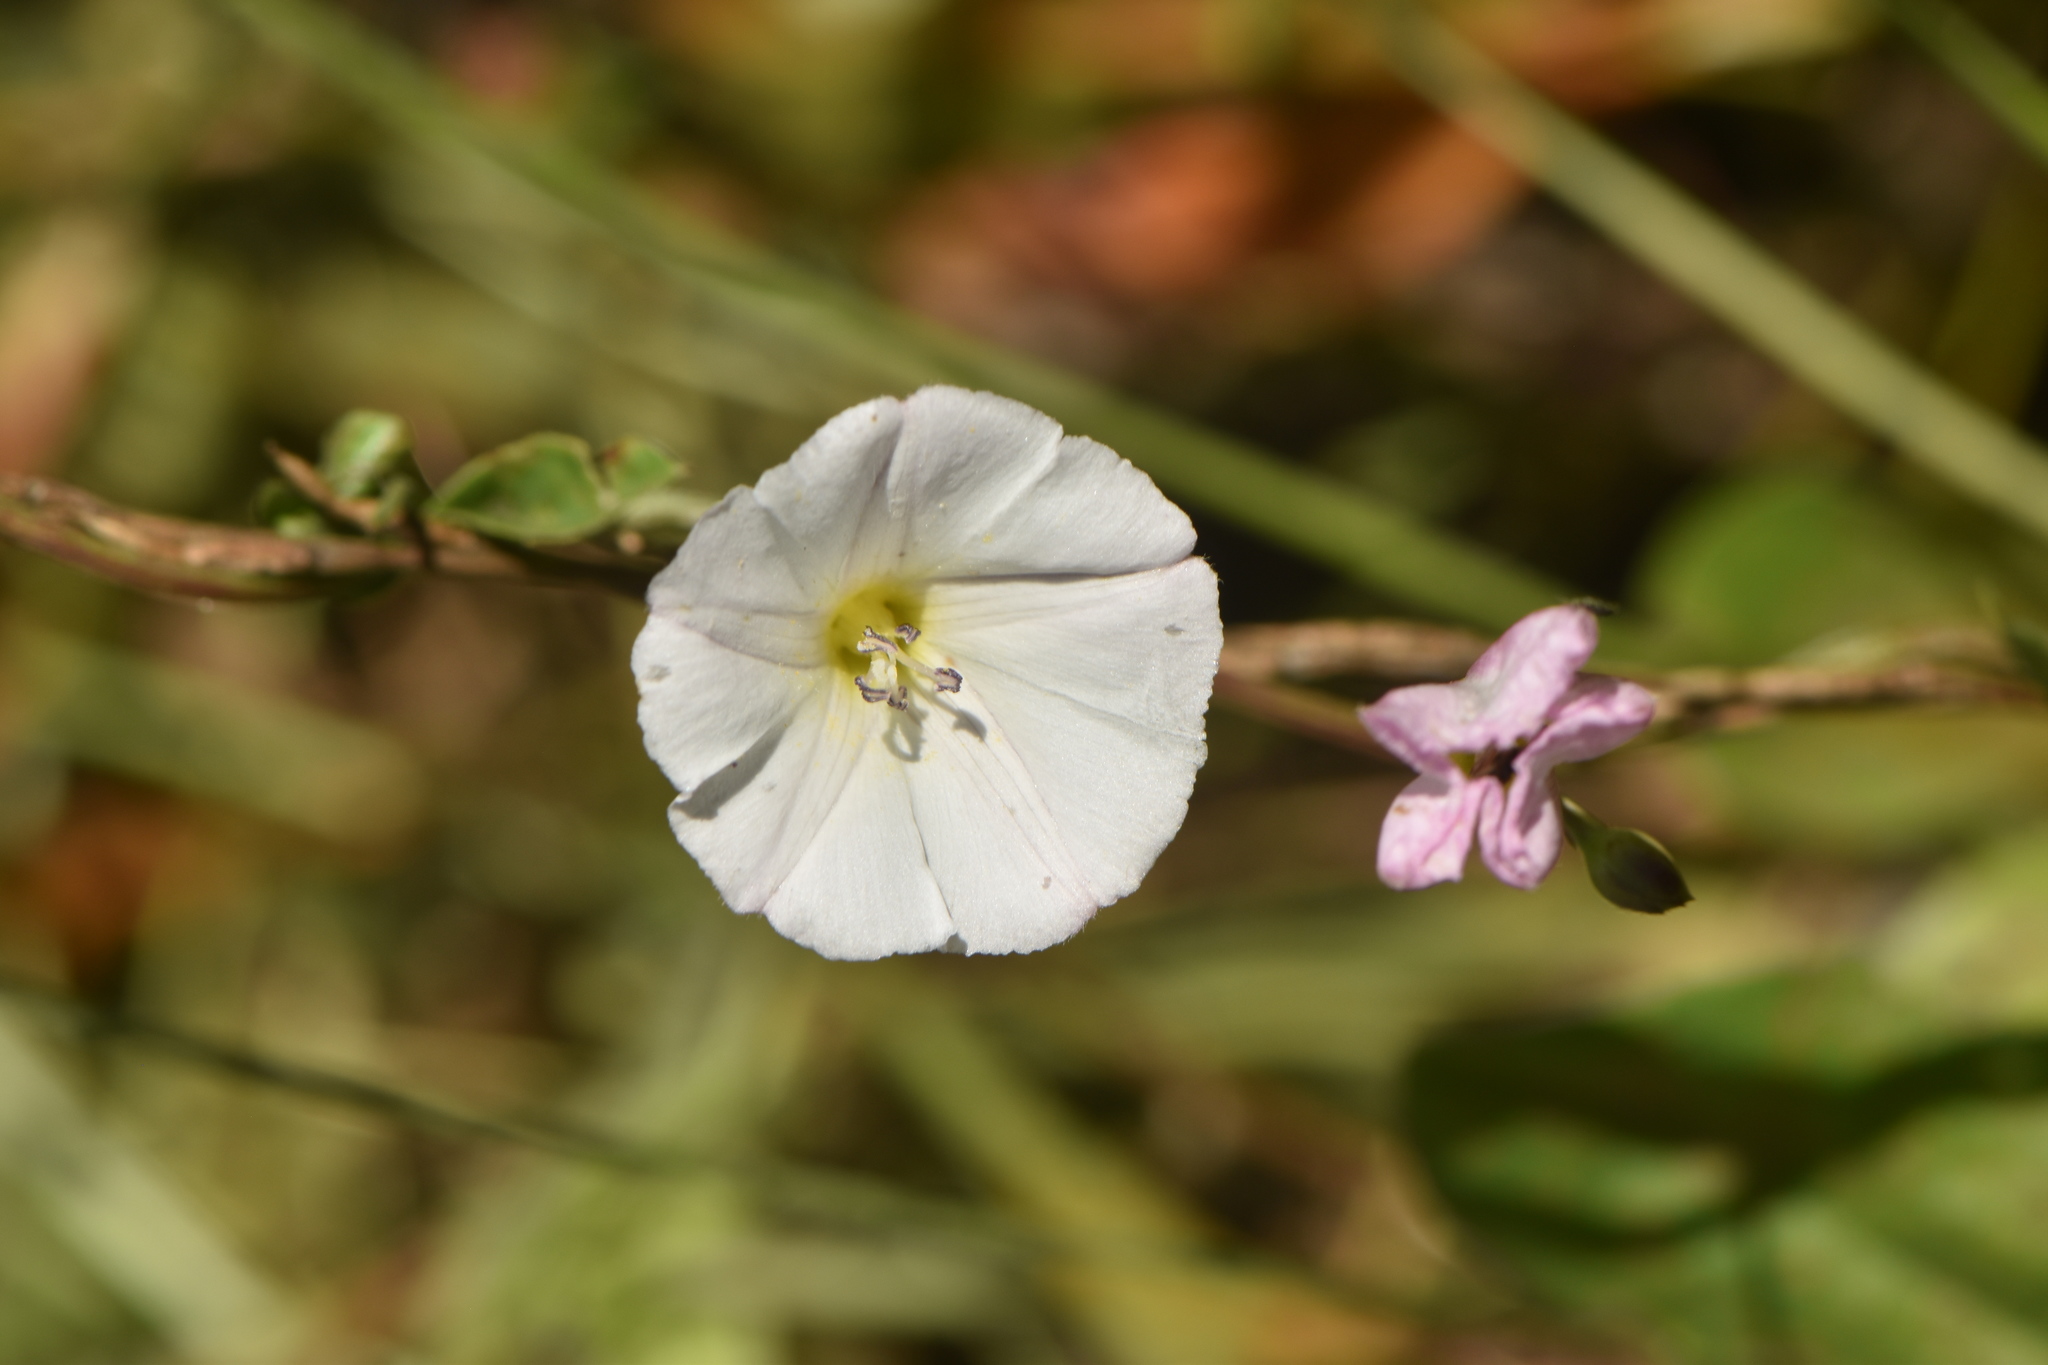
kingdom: Plantae
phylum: Tracheophyta
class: Magnoliopsida
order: Solanales
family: Convolvulaceae
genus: Convolvulus
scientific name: Convolvulus arvensis
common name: Field bindweed
